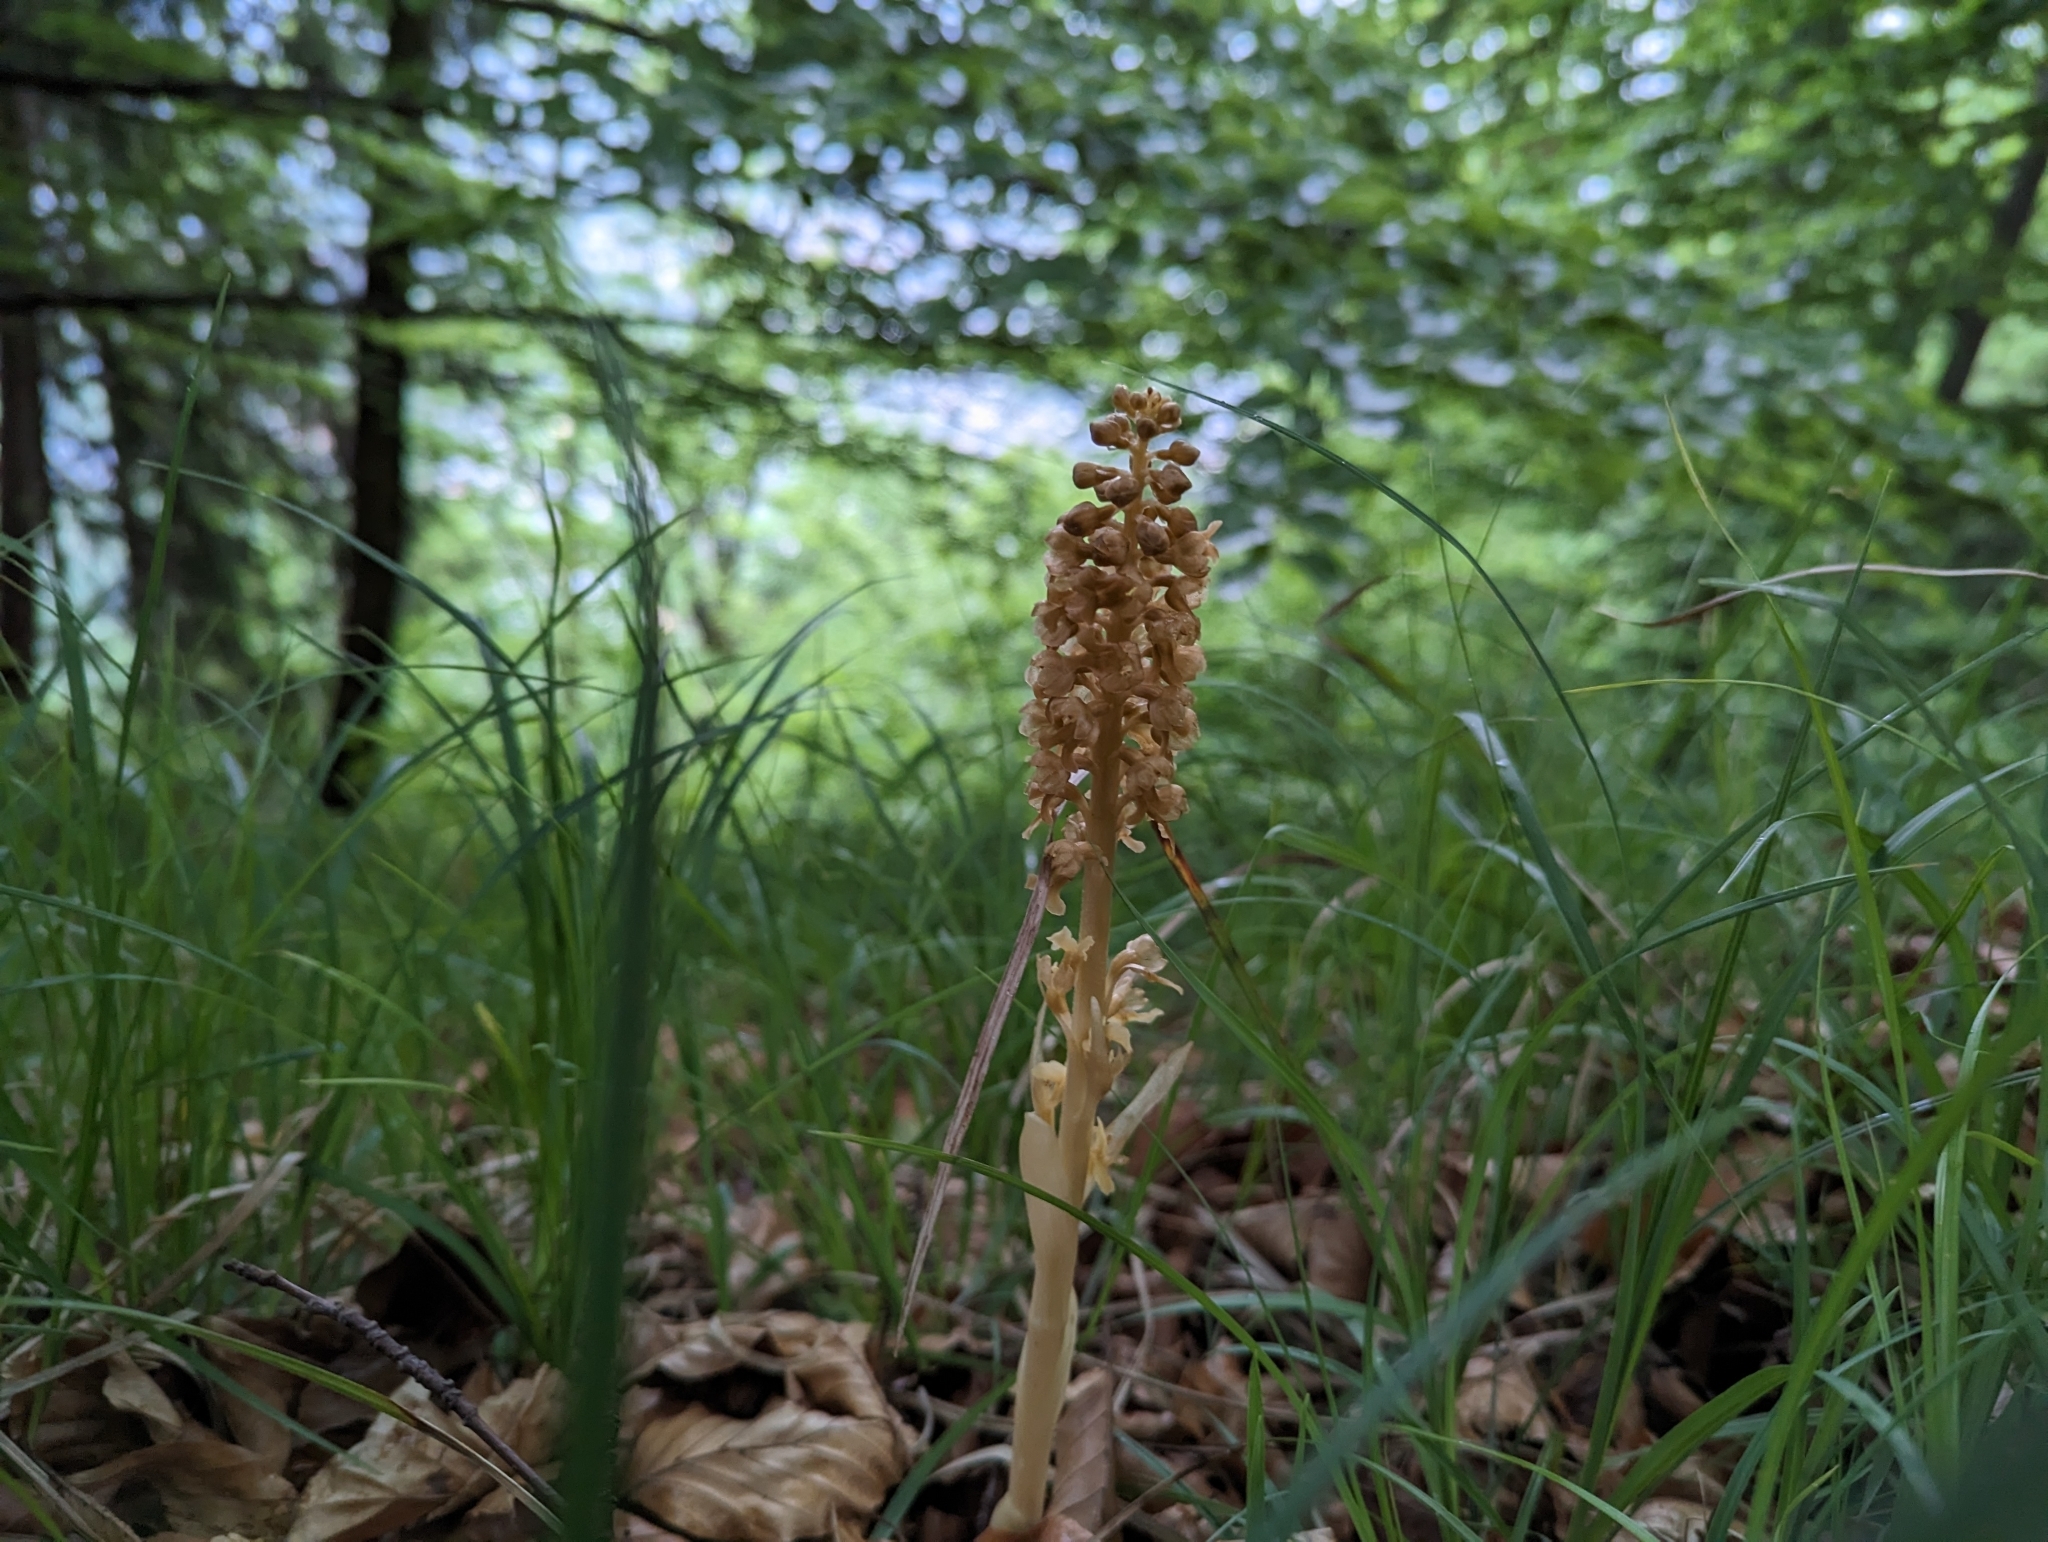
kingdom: Plantae
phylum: Tracheophyta
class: Liliopsida
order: Asparagales
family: Orchidaceae
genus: Neottia
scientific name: Neottia nidus-avis
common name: Bird's-nest orchid
